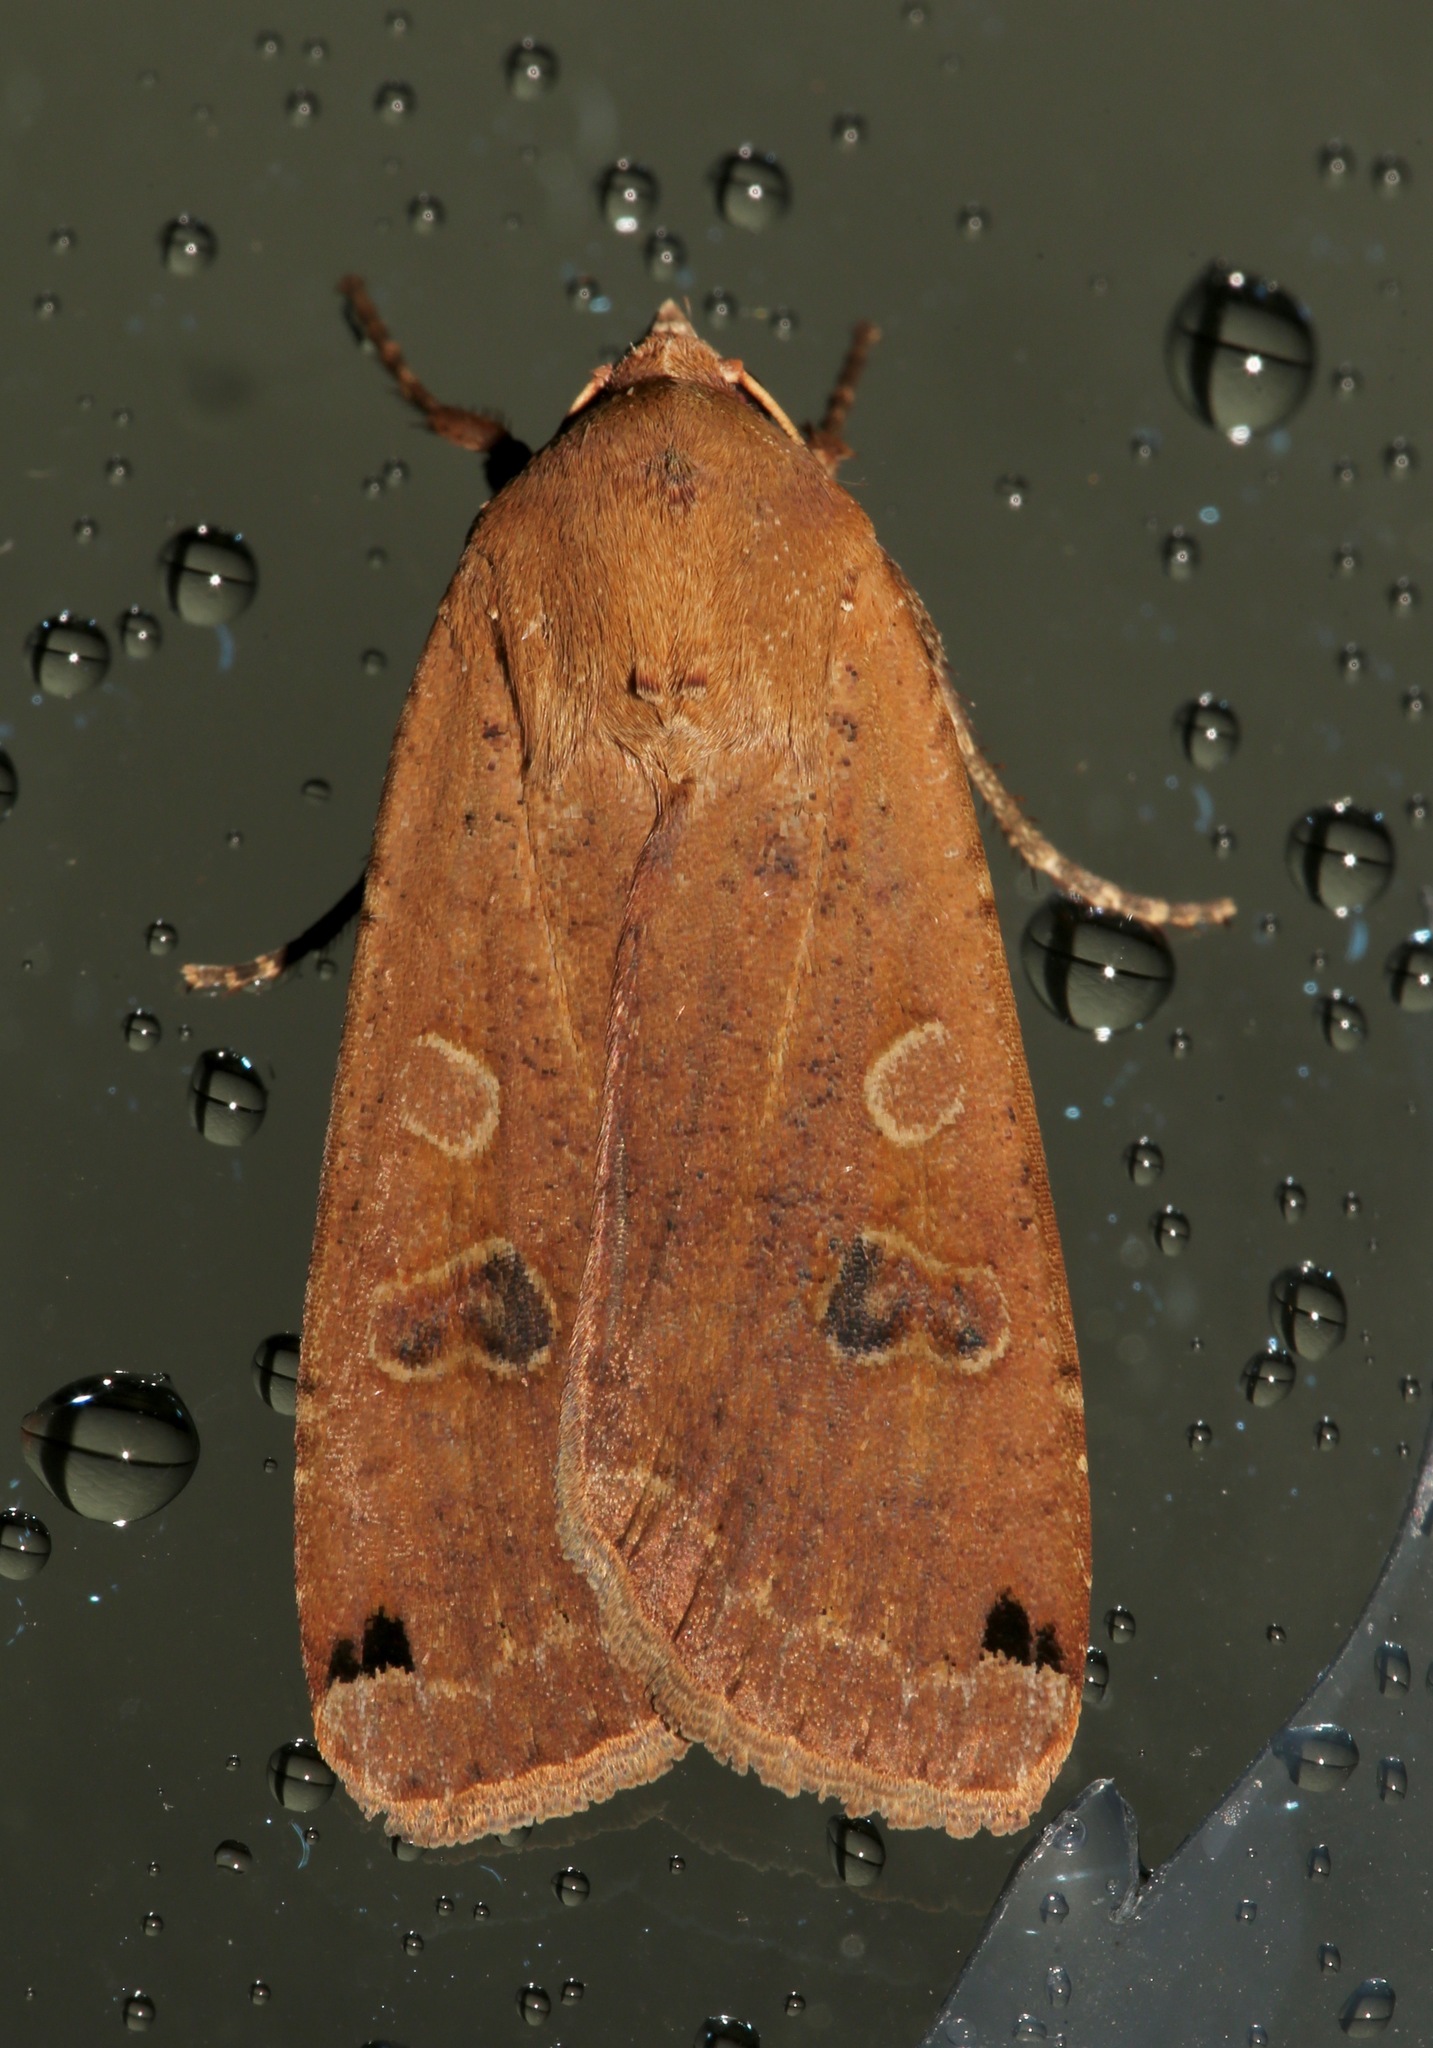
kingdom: Animalia
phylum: Arthropoda
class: Insecta
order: Lepidoptera
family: Noctuidae
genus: Noctua
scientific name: Noctua pronuba
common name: Large yellow underwing
